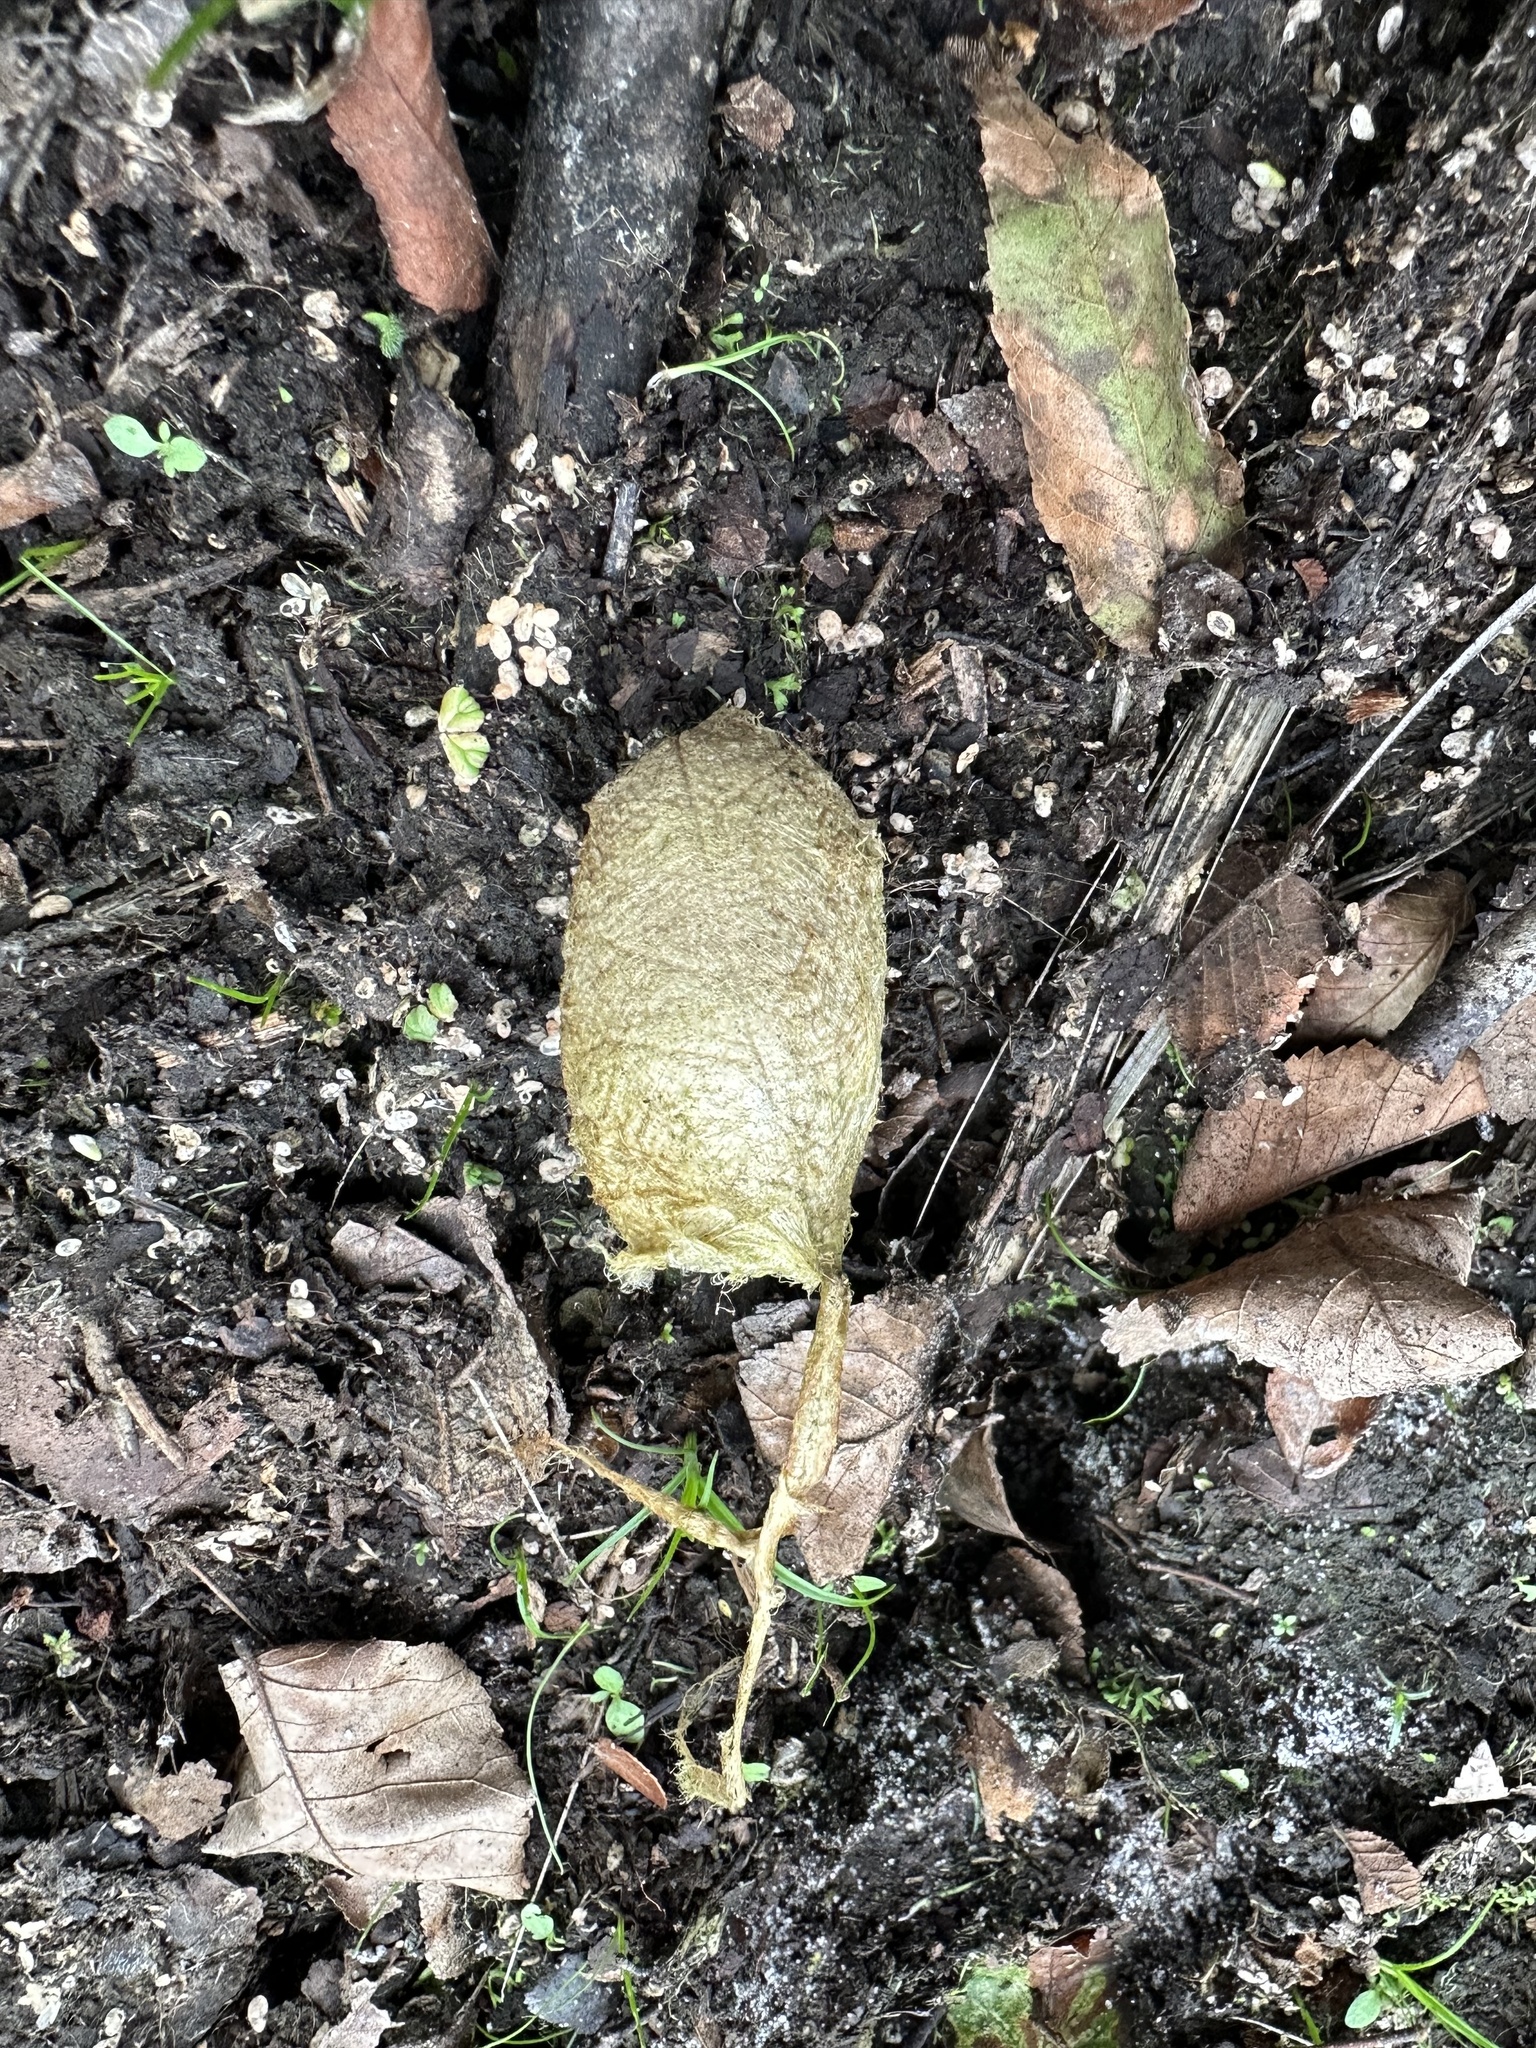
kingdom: Animalia
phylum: Arthropoda
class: Insecta
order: Lepidoptera
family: Saturniidae
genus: Antheraea
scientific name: Antheraea polyphemus
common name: Polyphemus moth
